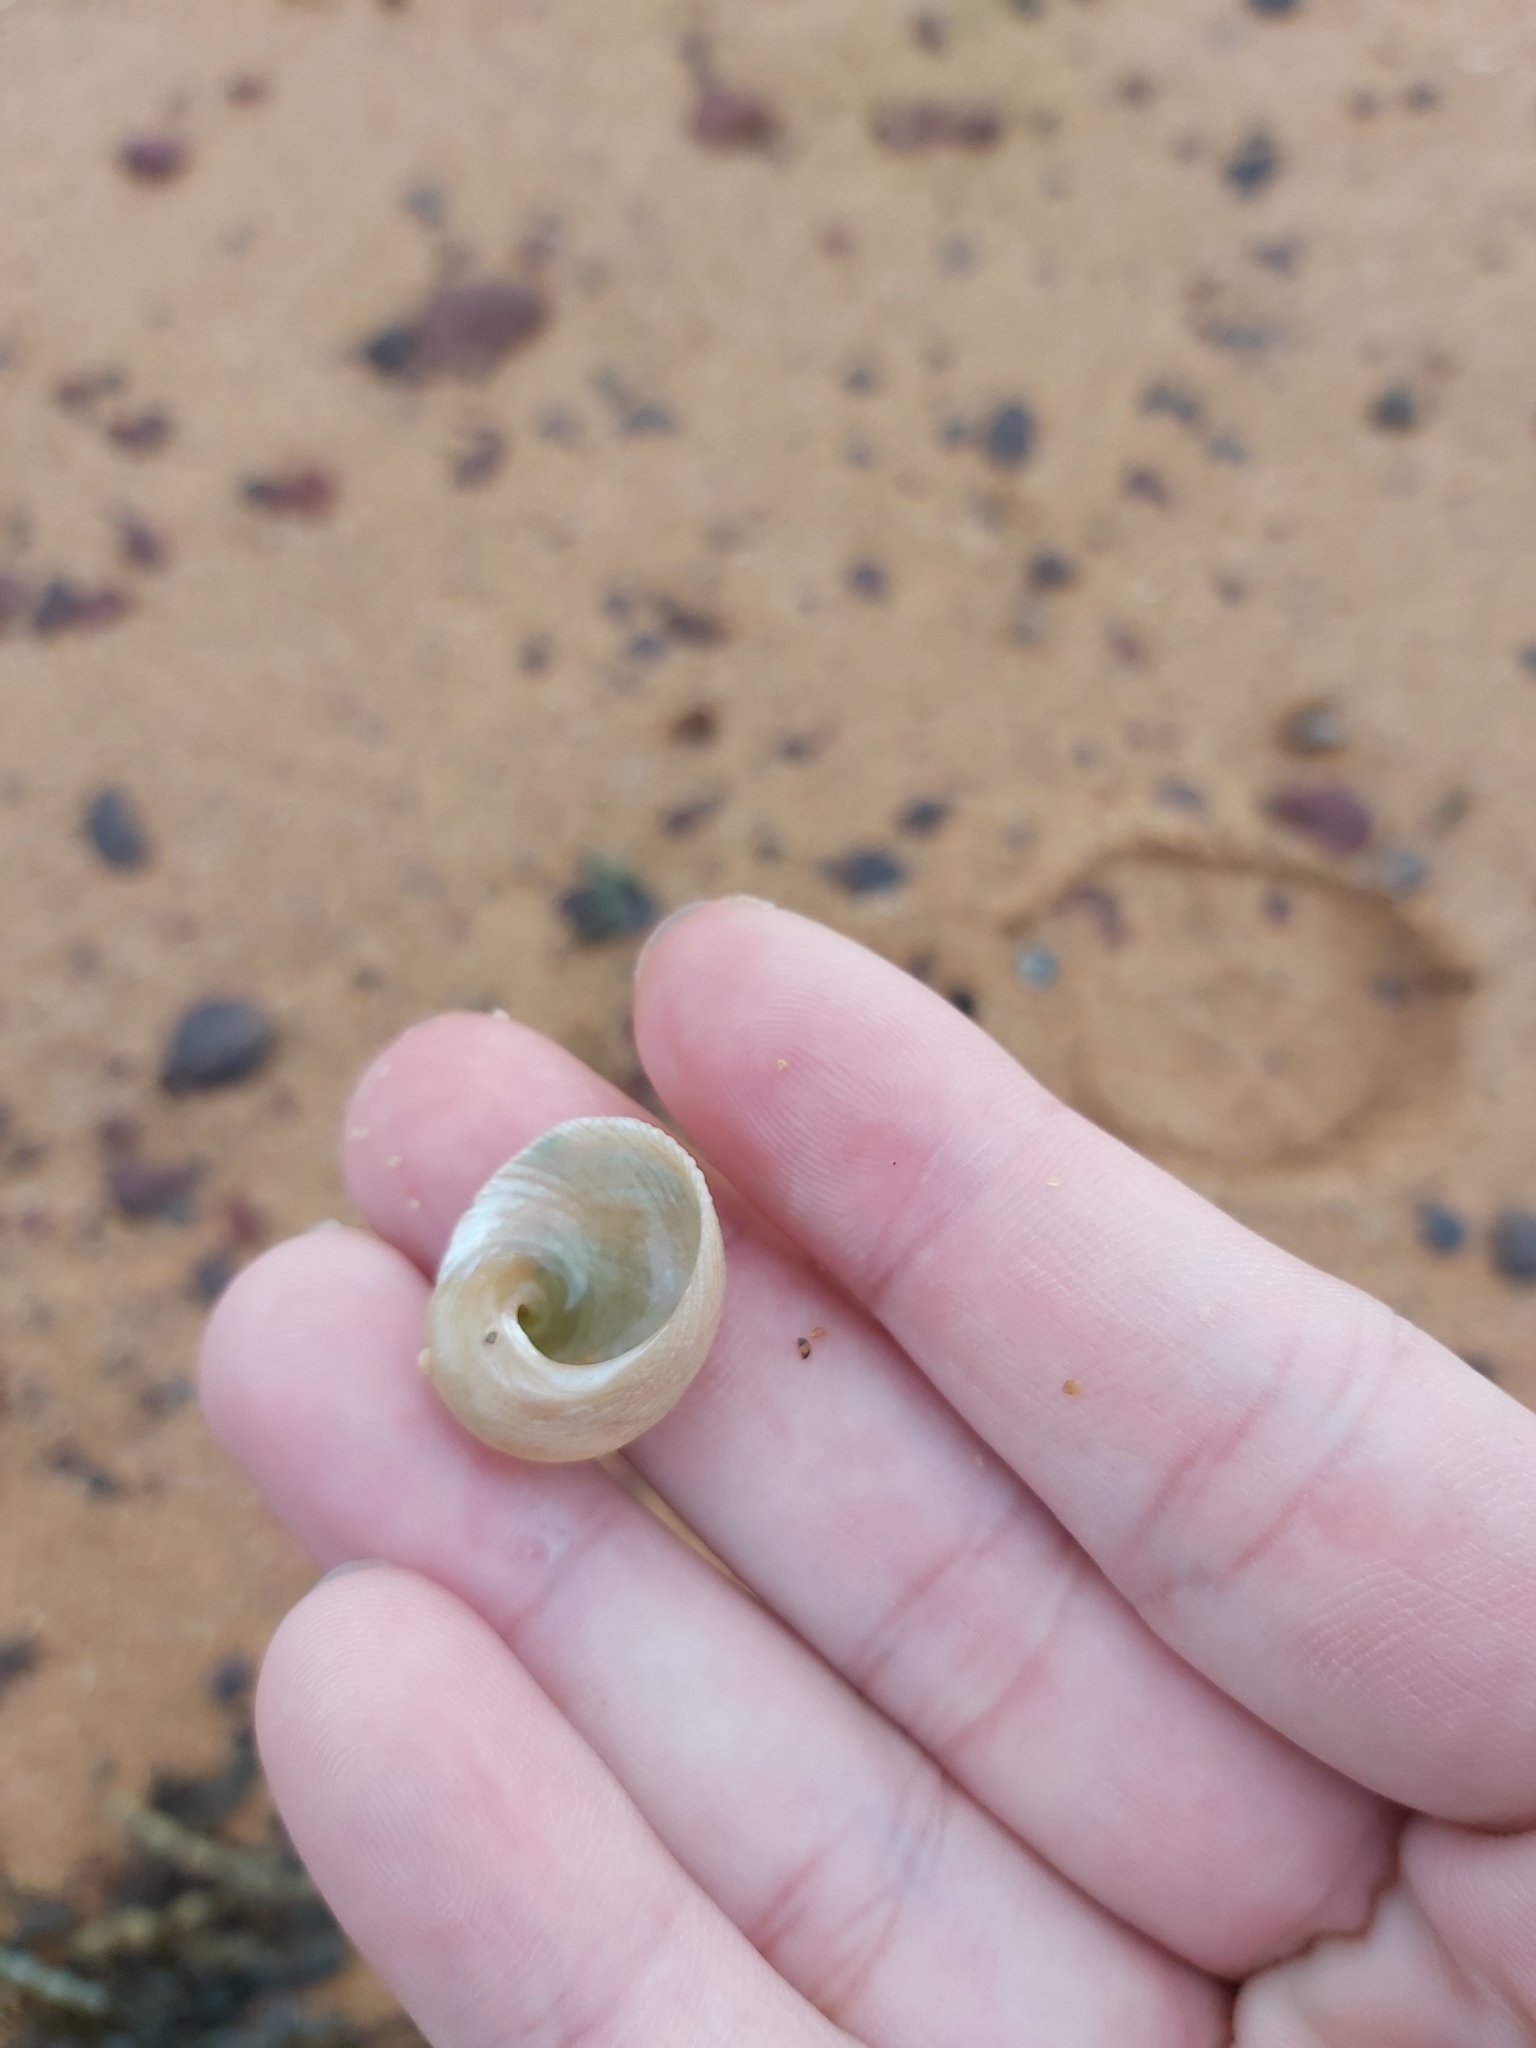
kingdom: Animalia
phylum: Mollusca
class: Gastropoda
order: Seguenziida
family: Chilodontaidae
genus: Granata
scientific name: Granata imbricata
